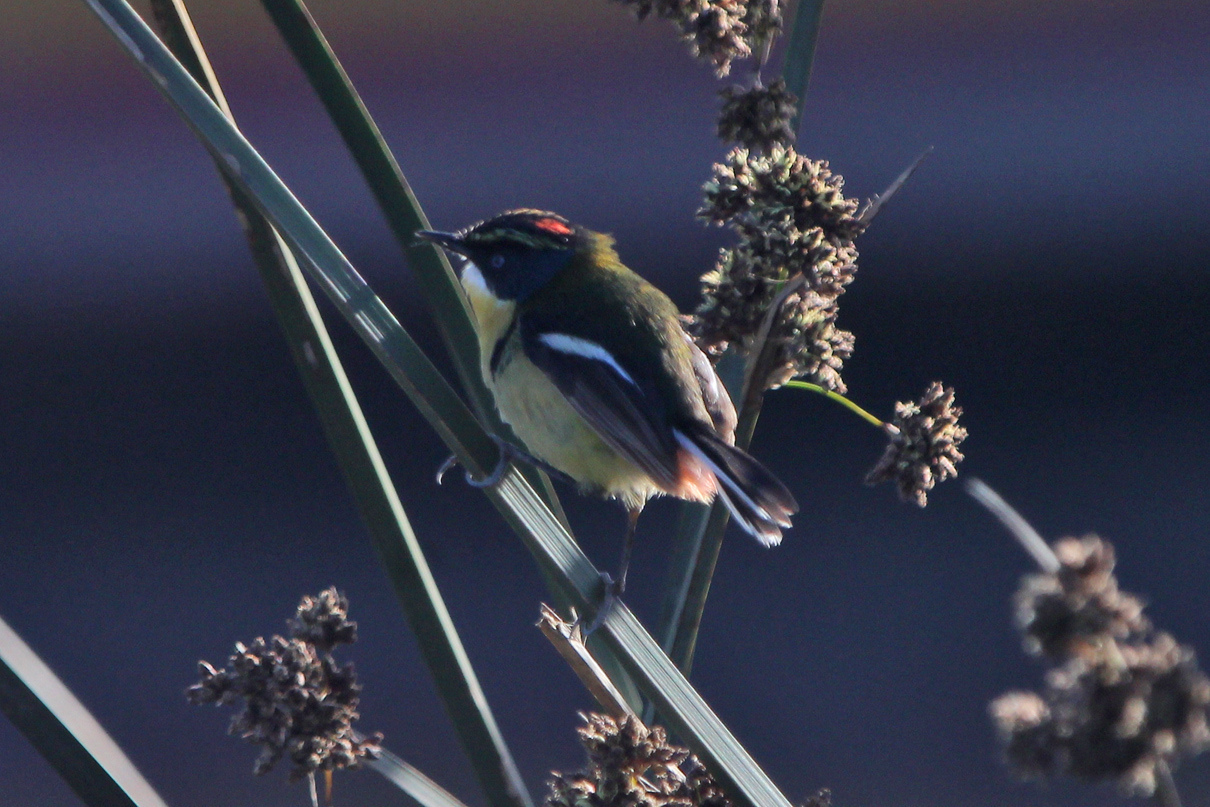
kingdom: Animalia
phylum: Chordata
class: Aves
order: Passeriformes
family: Tyrannidae
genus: Tachuris
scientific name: Tachuris rubrigastra
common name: Many-colored rush tyrant
